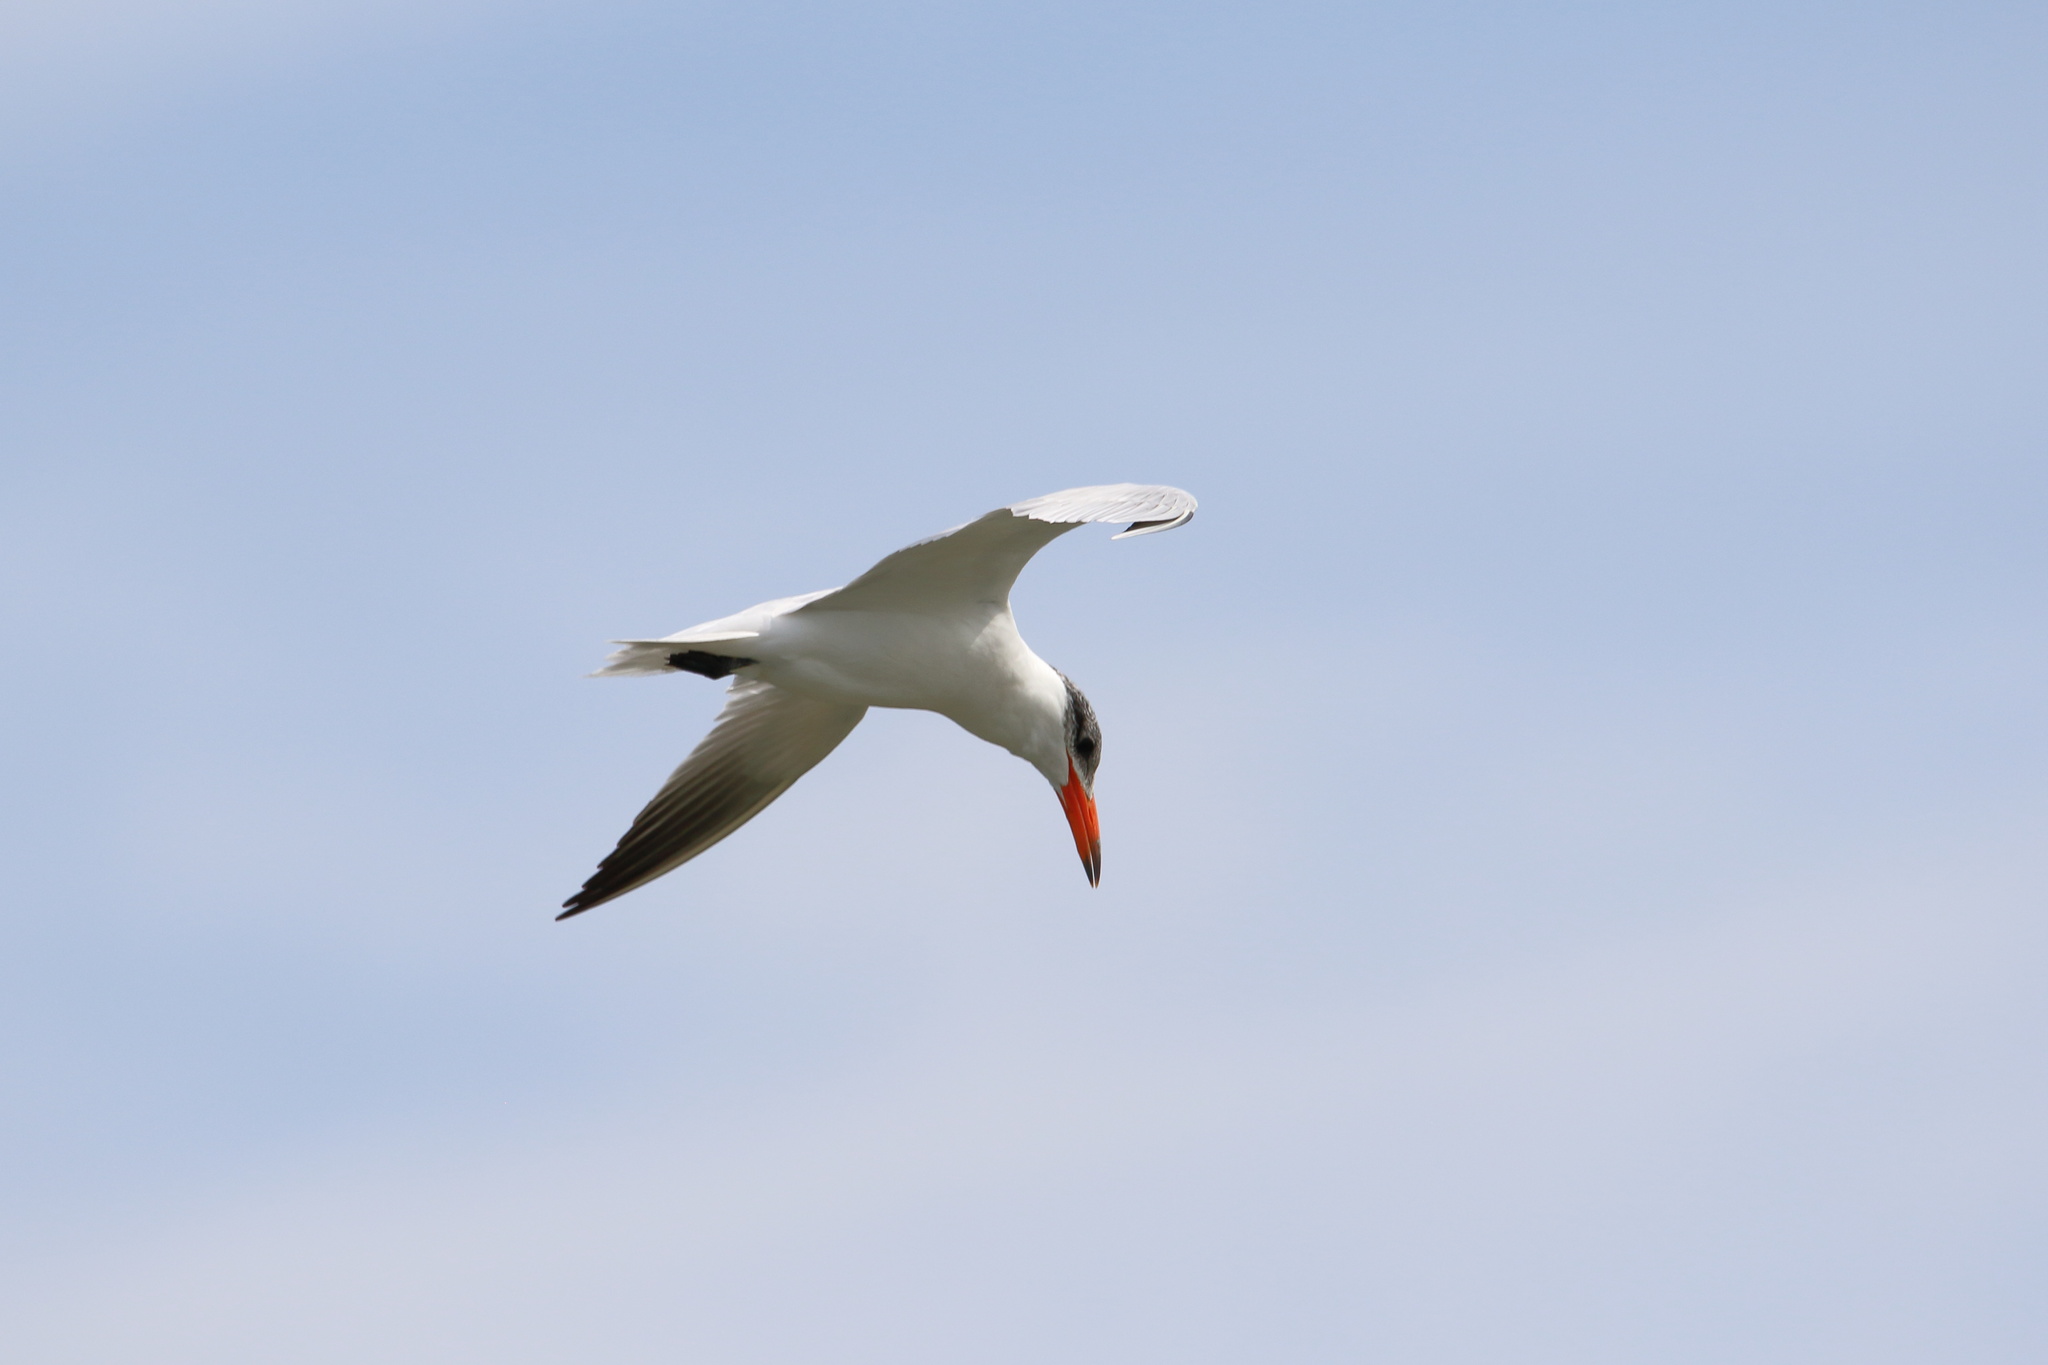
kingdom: Animalia
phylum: Chordata
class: Aves
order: Charadriiformes
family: Laridae
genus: Hydroprogne
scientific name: Hydroprogne caspia
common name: Caspian tern
